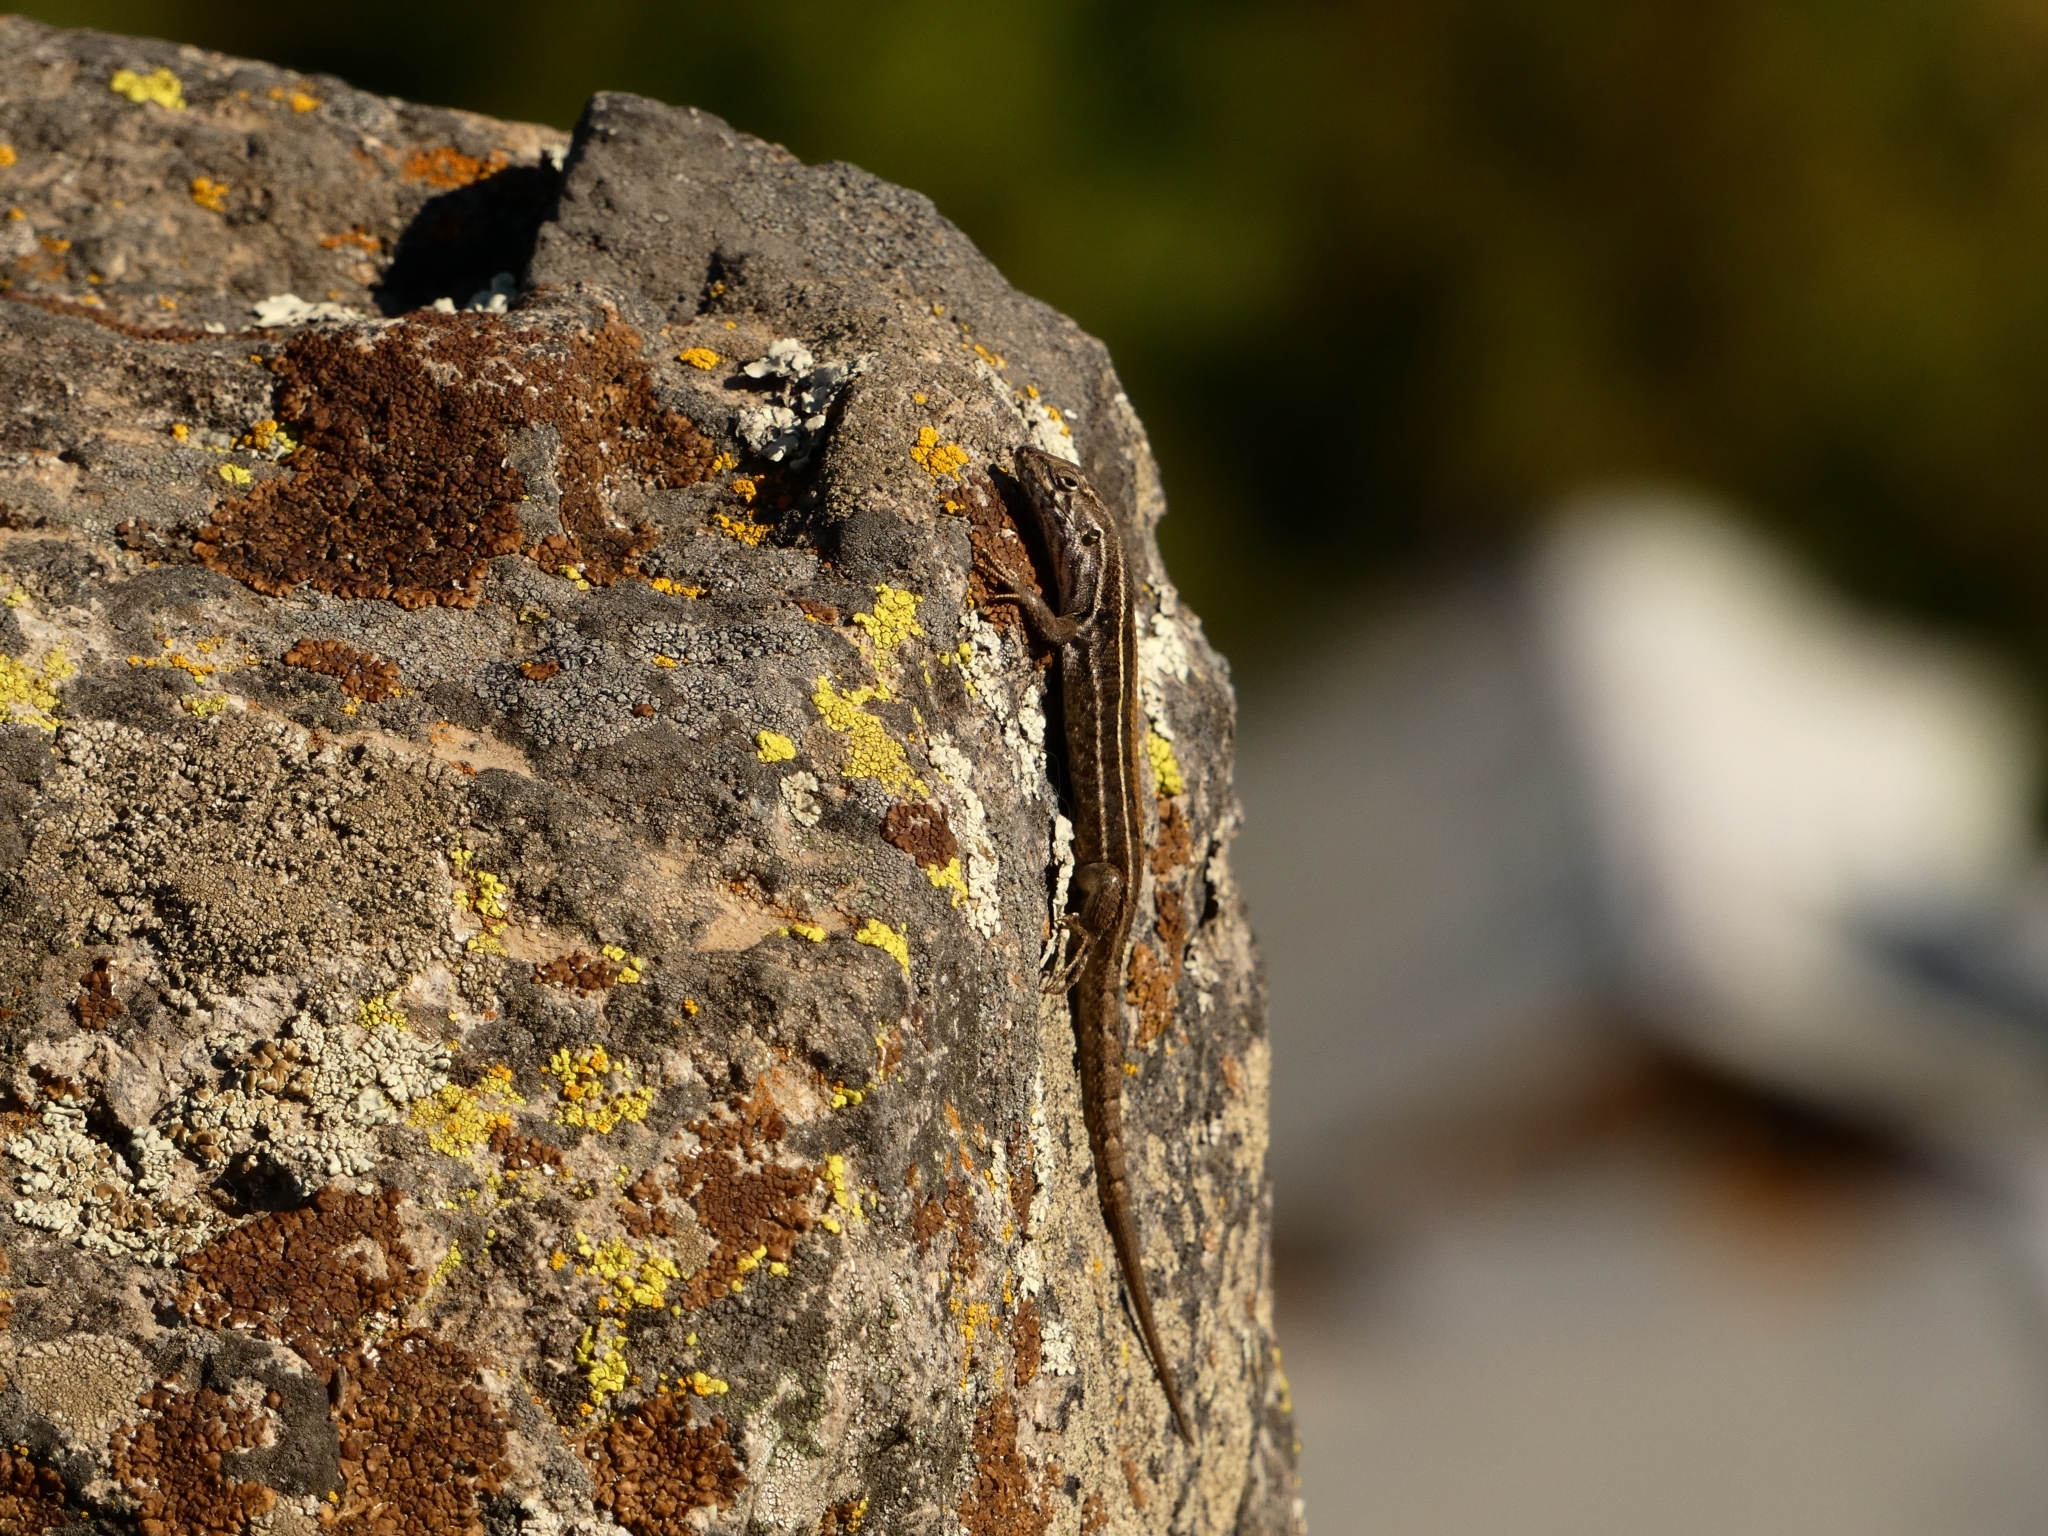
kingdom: Animalia
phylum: Chordata
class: Squamata
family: Liolaemidae
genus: Liolaemus
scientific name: Liolaemus lemniscatus
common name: Wreath tree iguana
